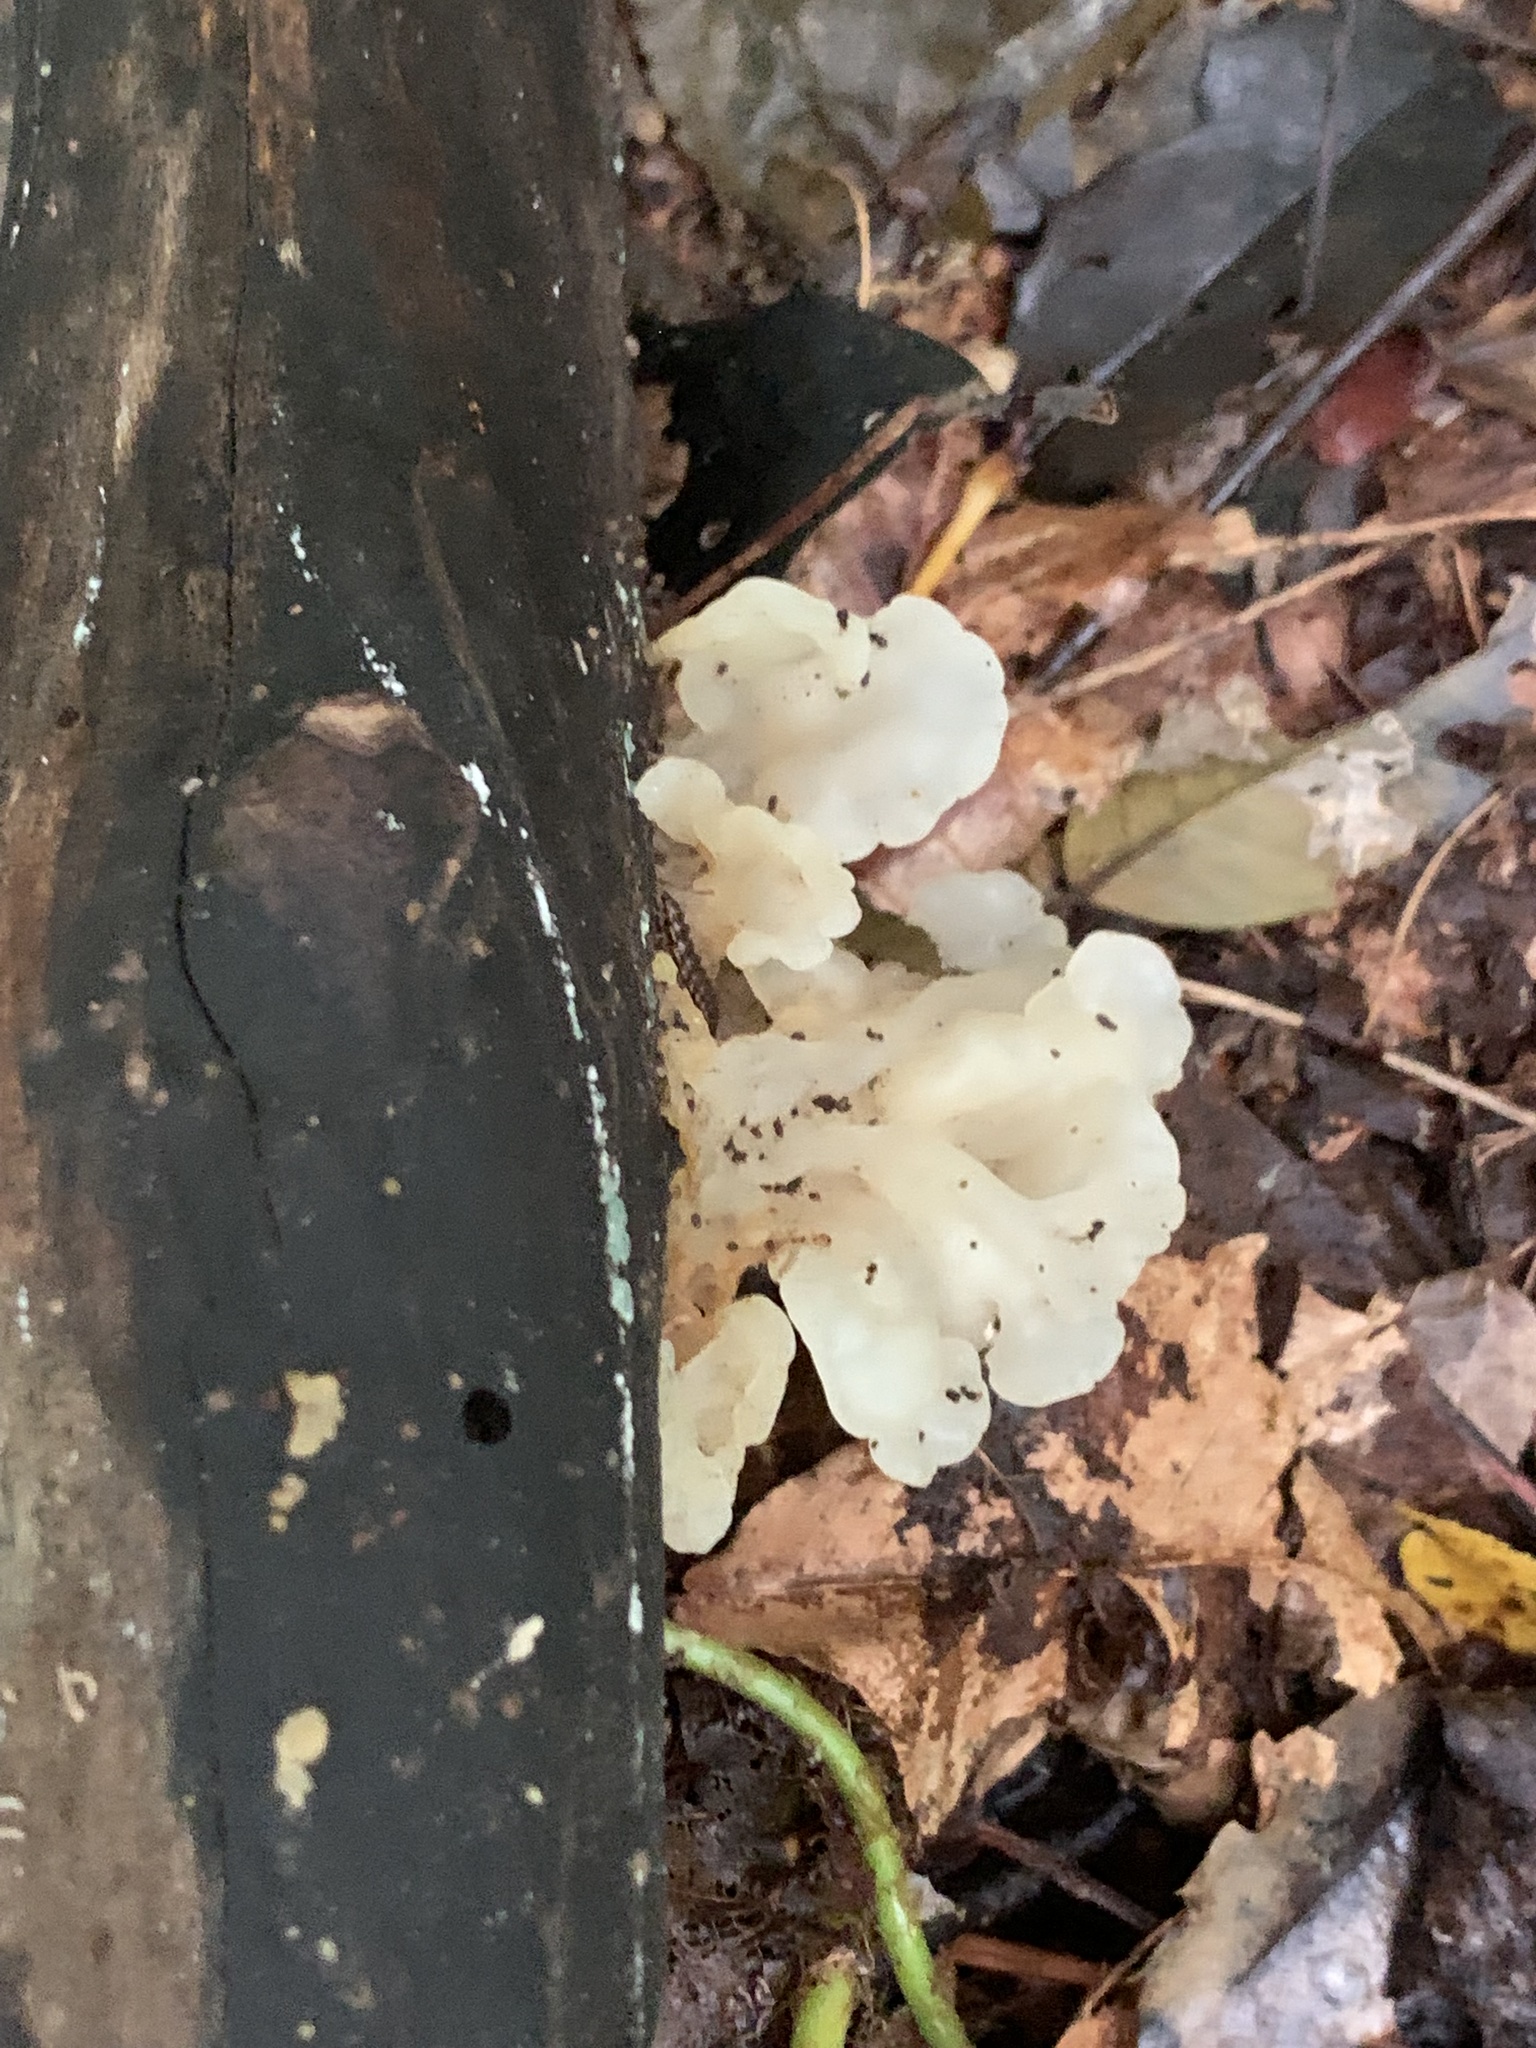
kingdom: Fungi
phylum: Basidiomycota
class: Agaricomycetes
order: Auriculariales
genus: Ductifera
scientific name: Ductifera pululahuana
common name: White jelly fungus
